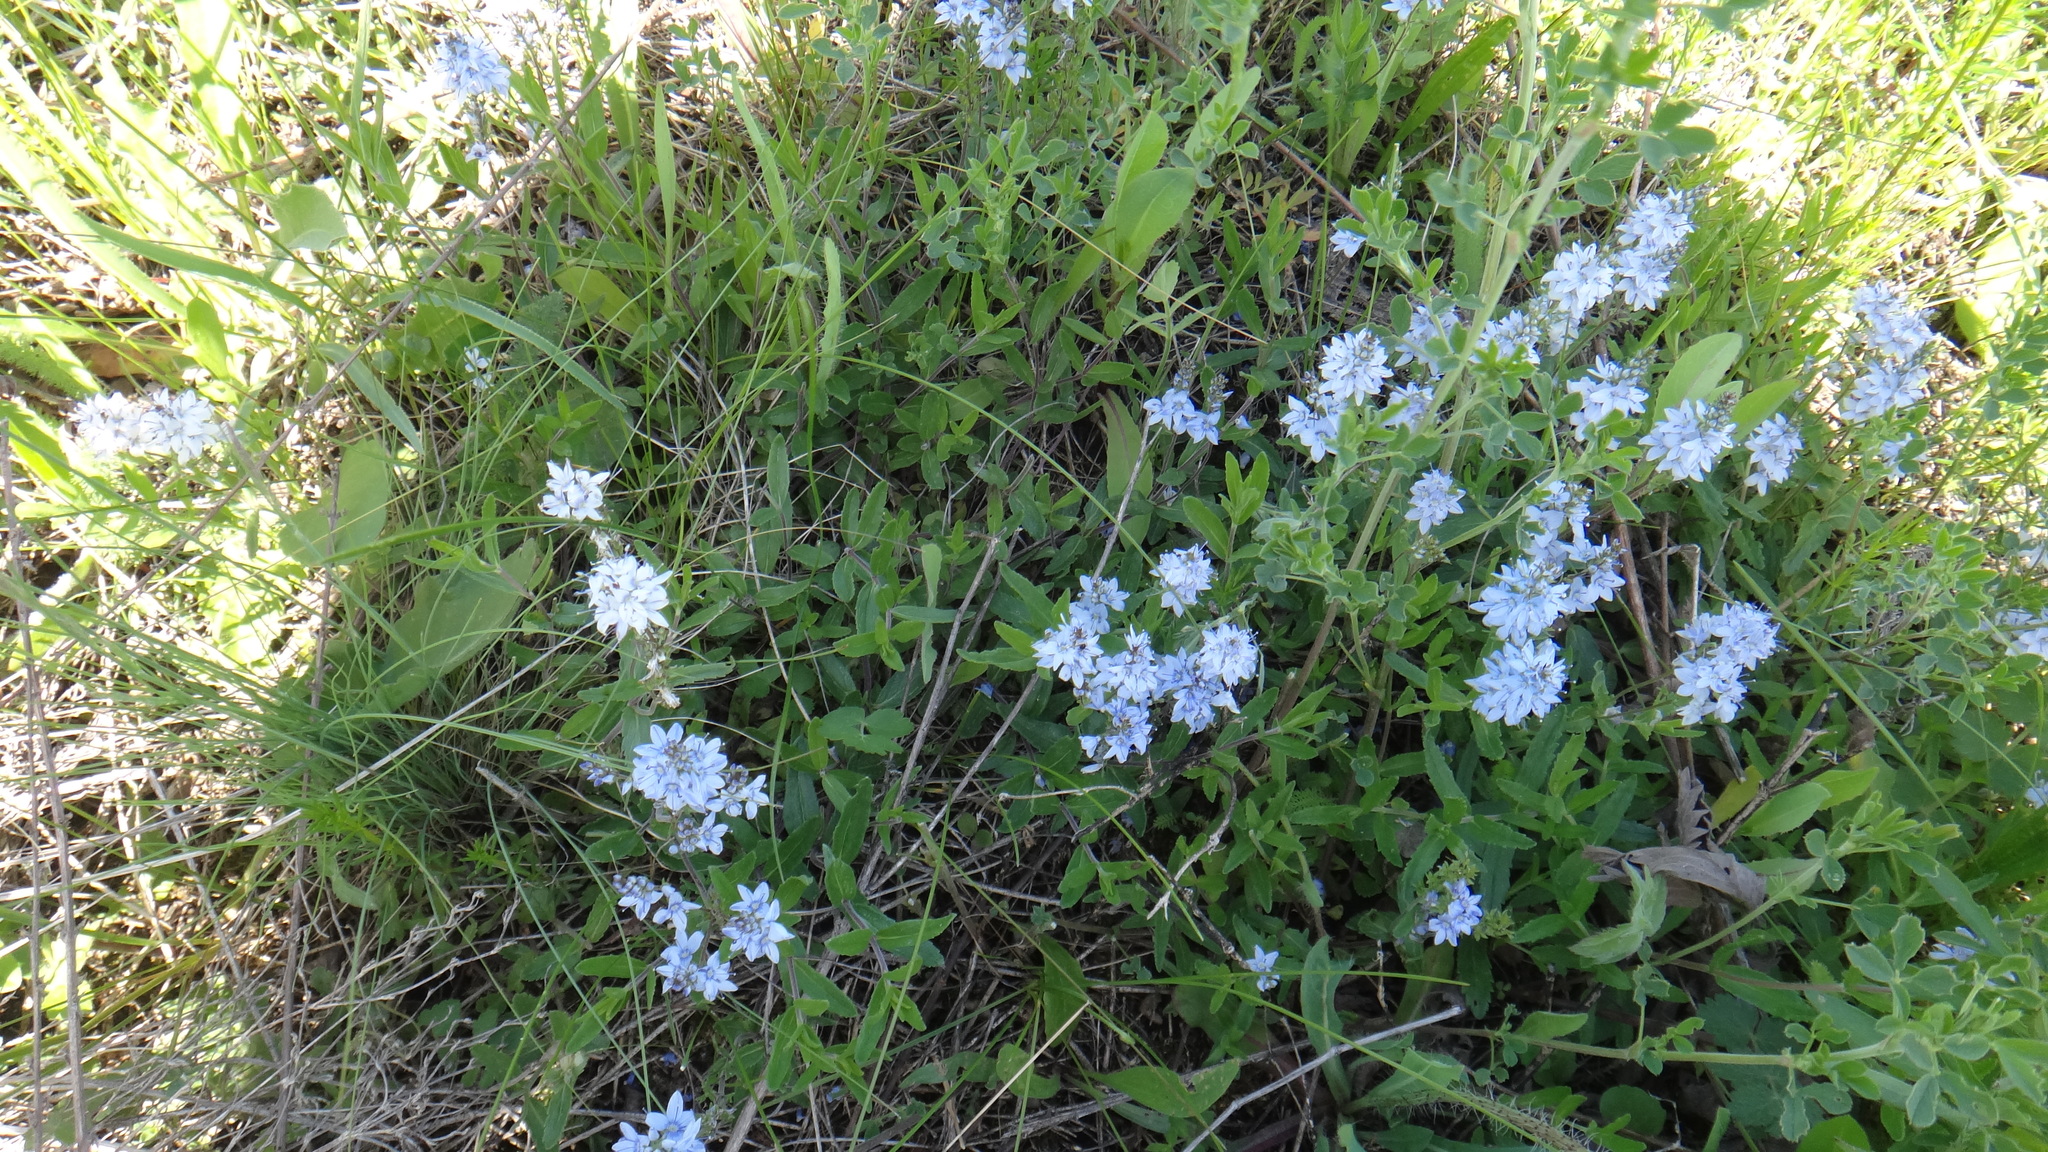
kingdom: Plantae
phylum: Tracheophyta
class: Magnoliopsida
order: Lamiales
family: Plantaginaceae
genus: Veronica
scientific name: Veronica prostrata
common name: Prostrate speedwell
